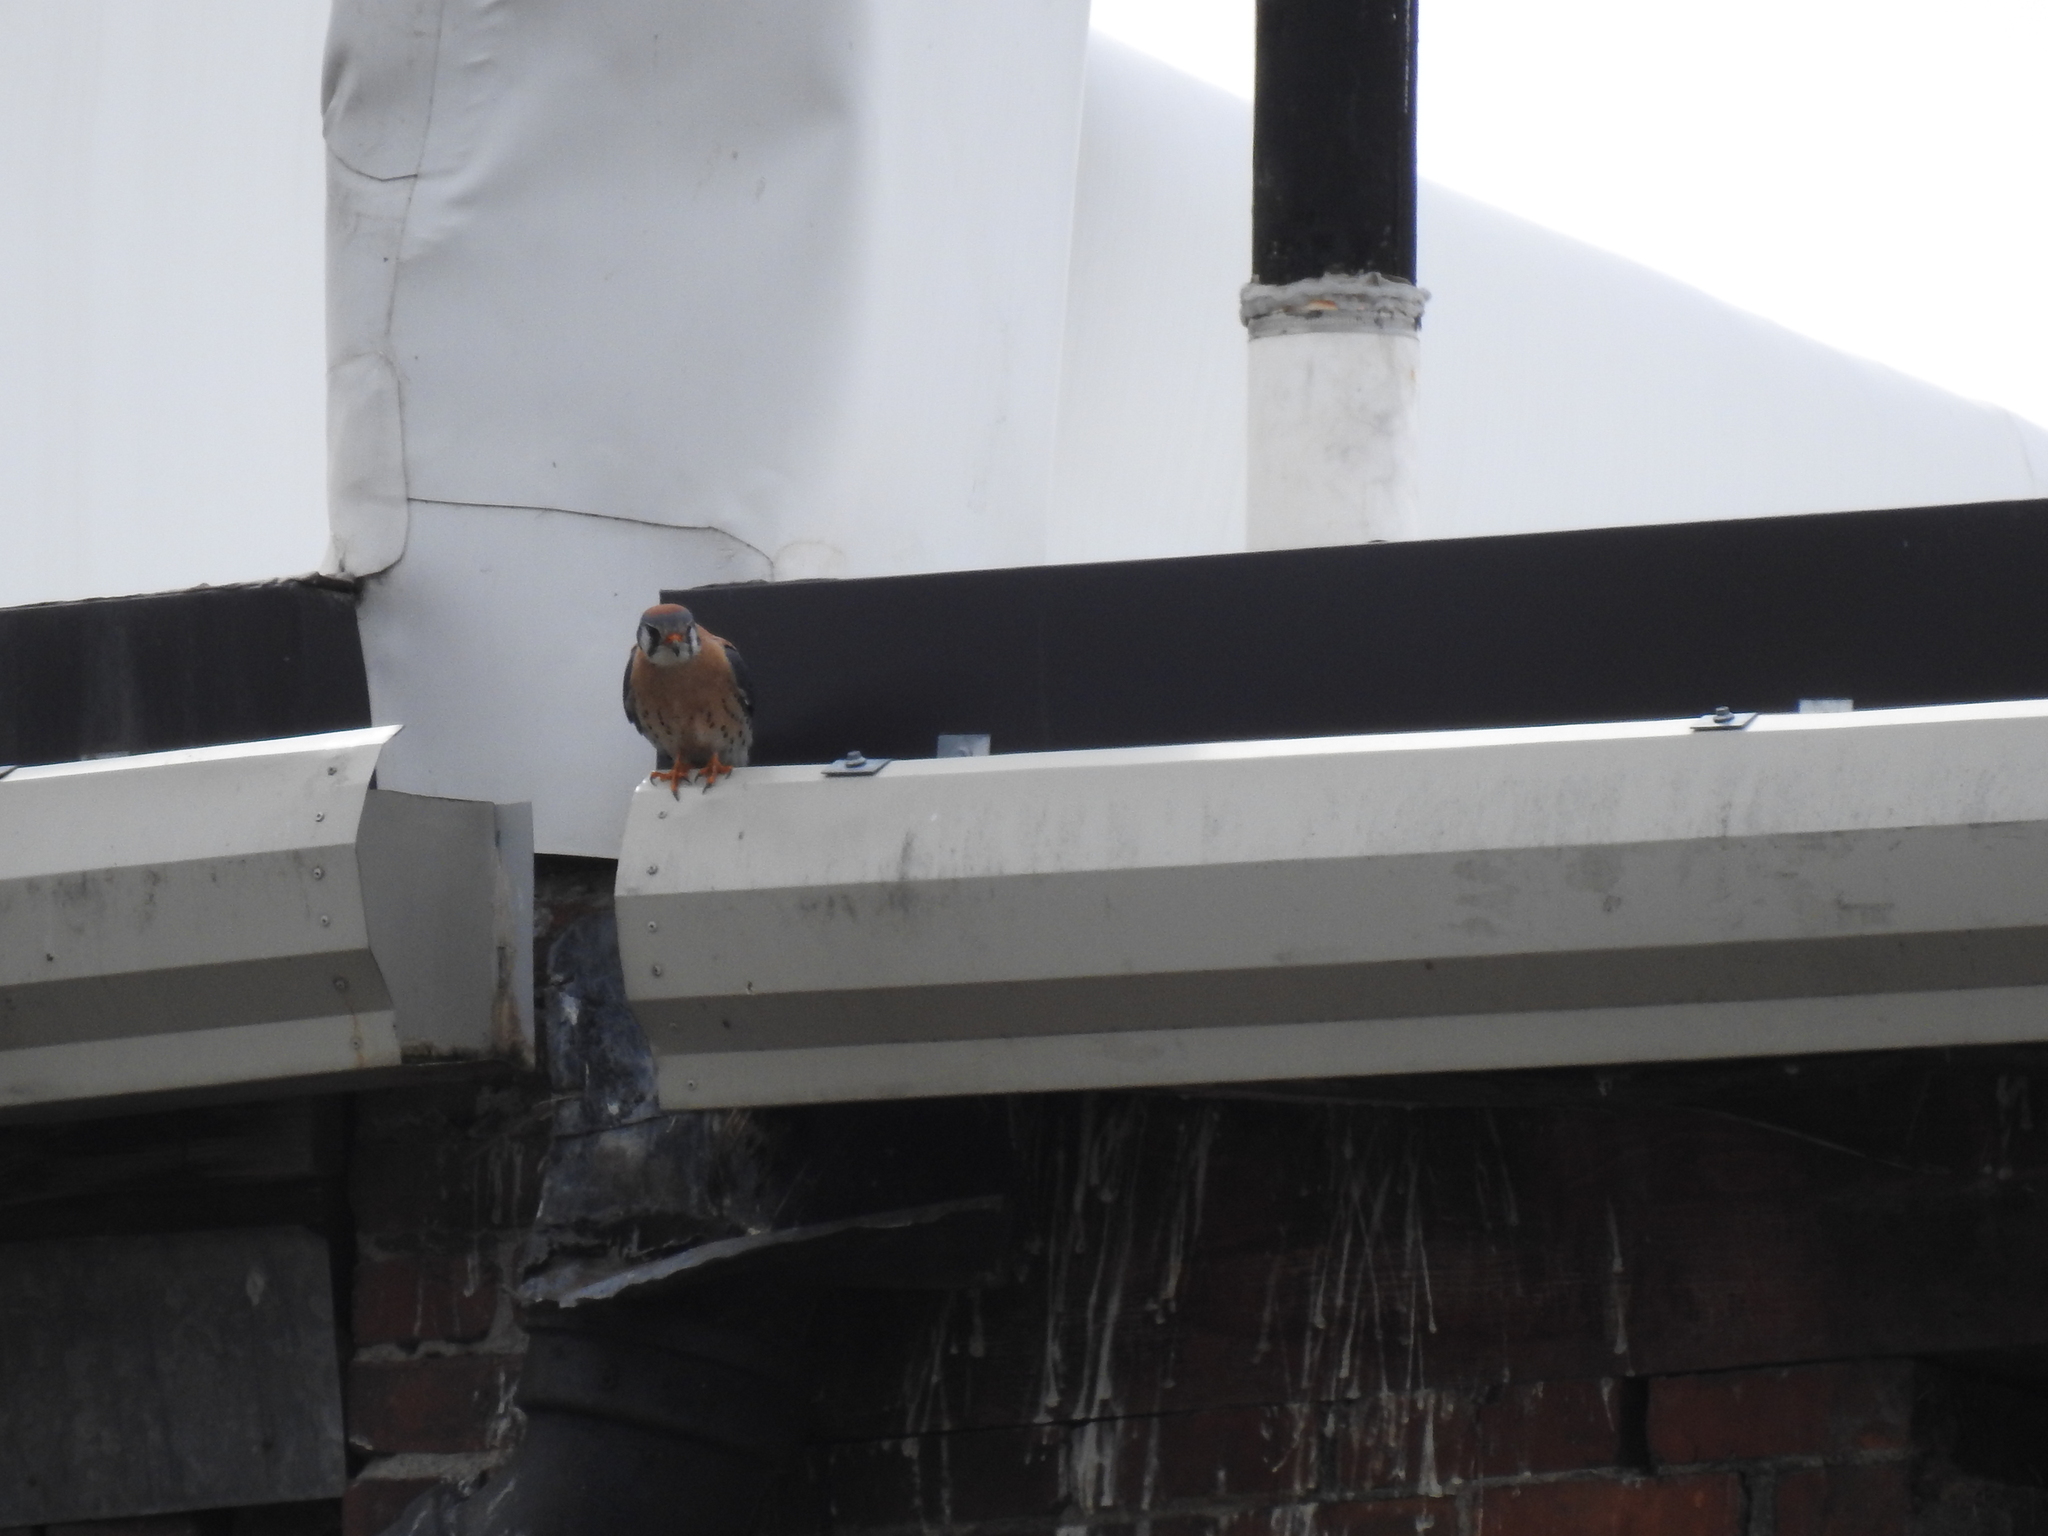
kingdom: Animalia
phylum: Chordata
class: Aves
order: Falconiformes
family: Falconidae
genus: Falco
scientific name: Falco sparverius
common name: American kestrel
